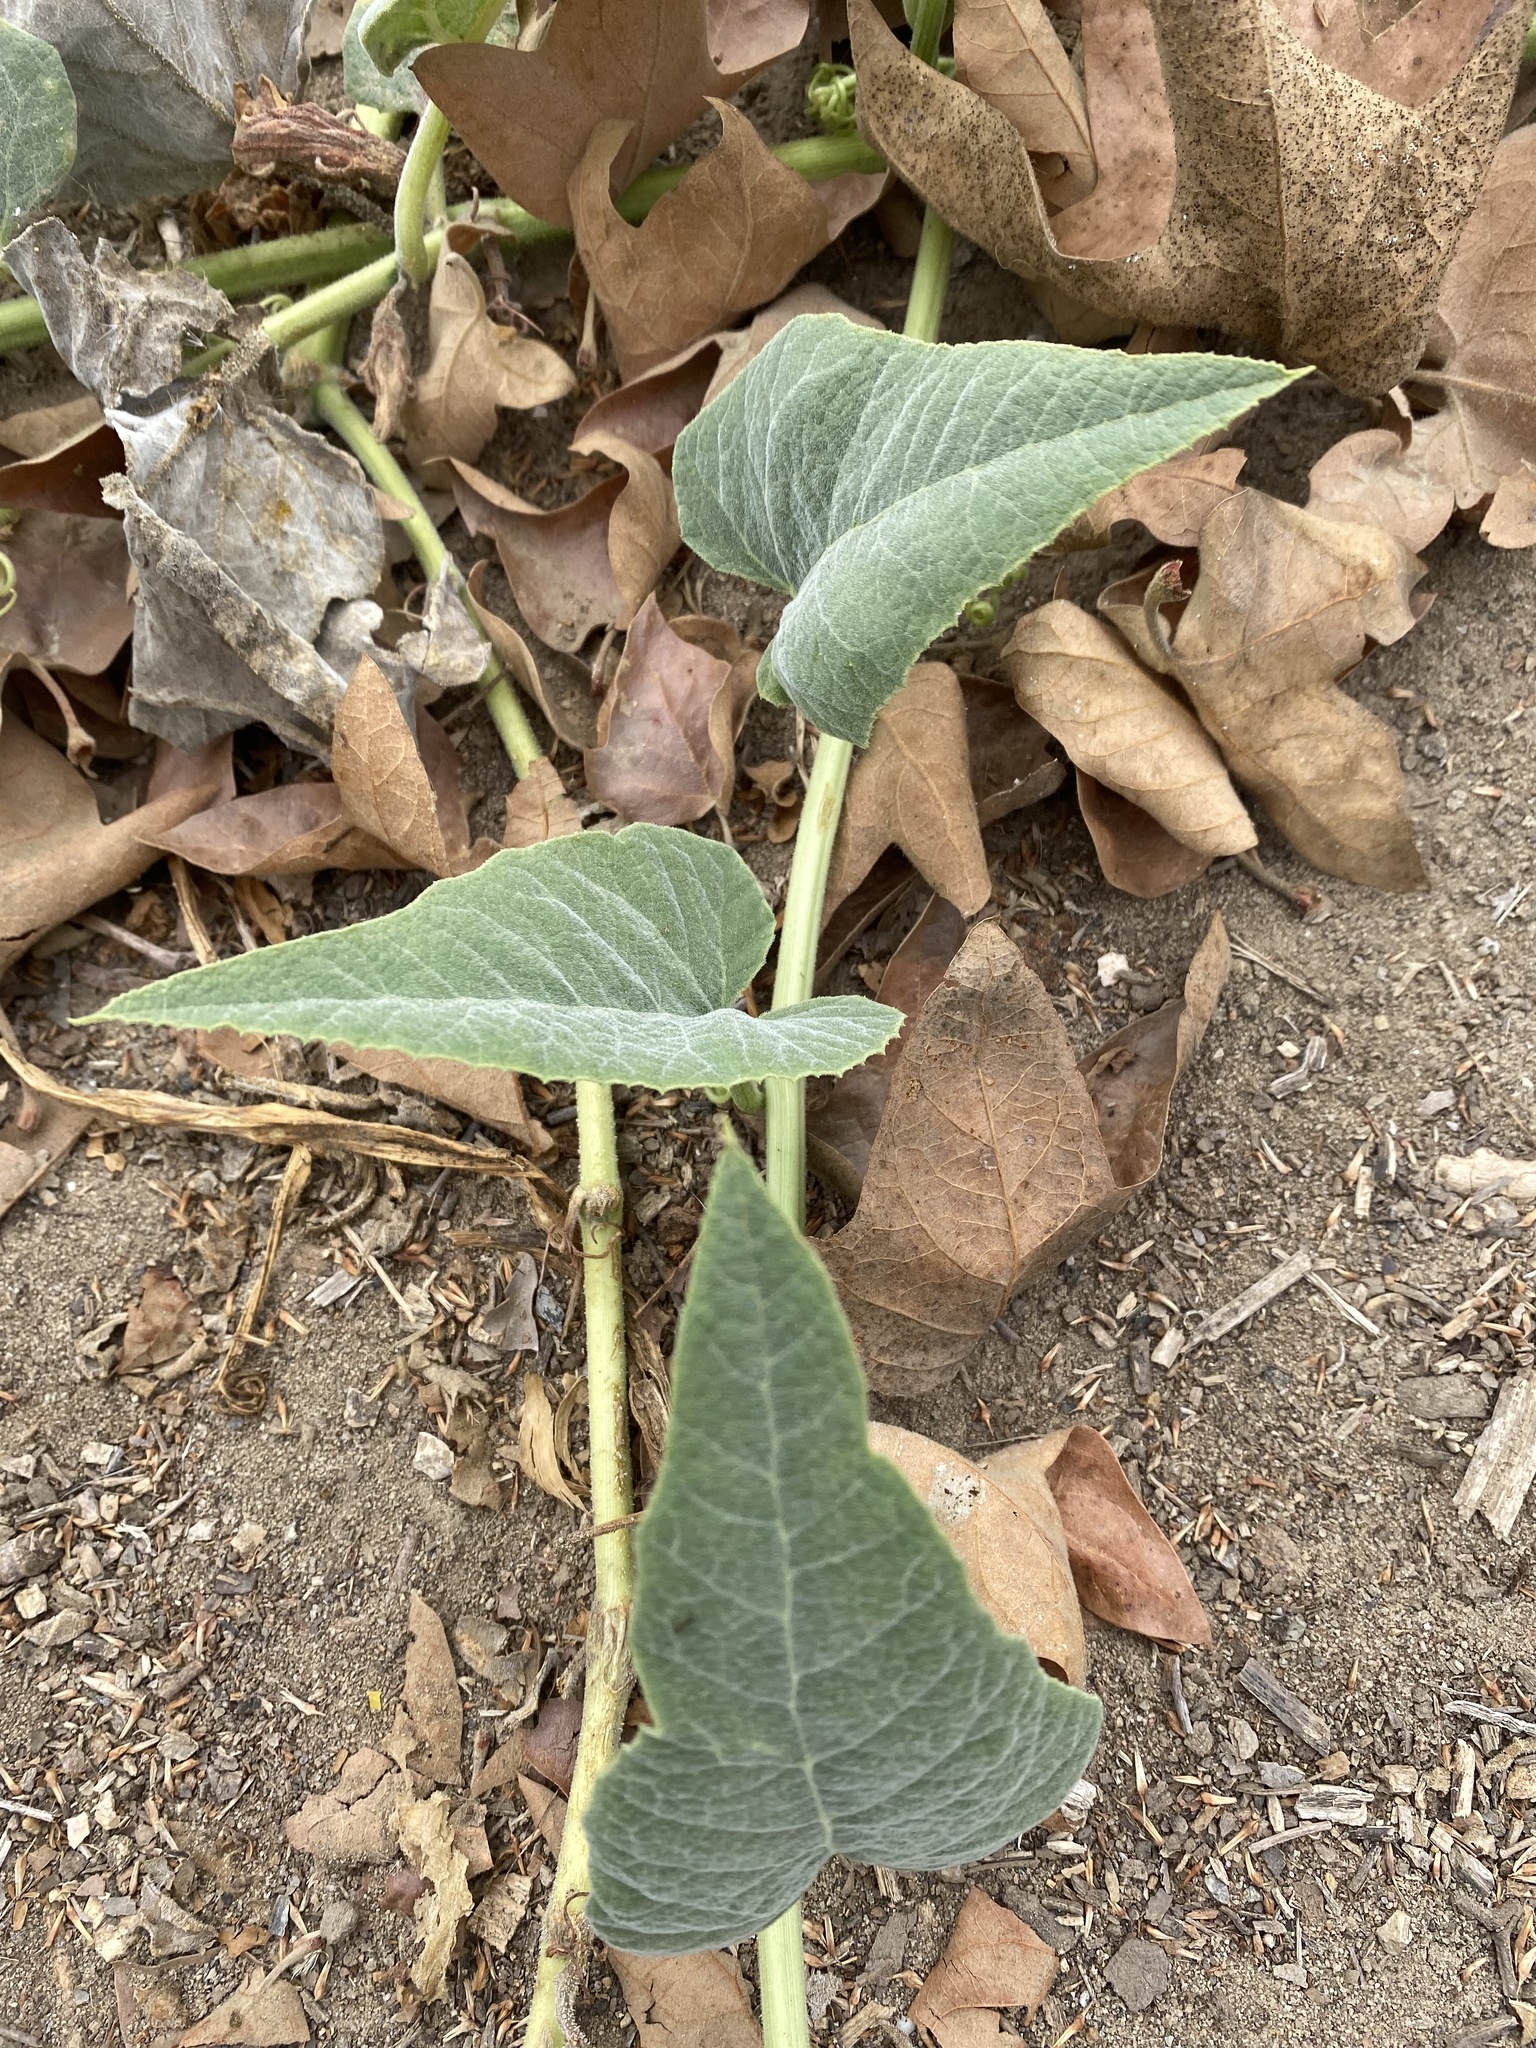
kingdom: Plantae
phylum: Tracheophyta
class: Magnoliopsida
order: Cucurbitales
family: Cucurbitaceae
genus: Cucurbita
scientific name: Cucurbita foetidissima
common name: Buffalo gourd
